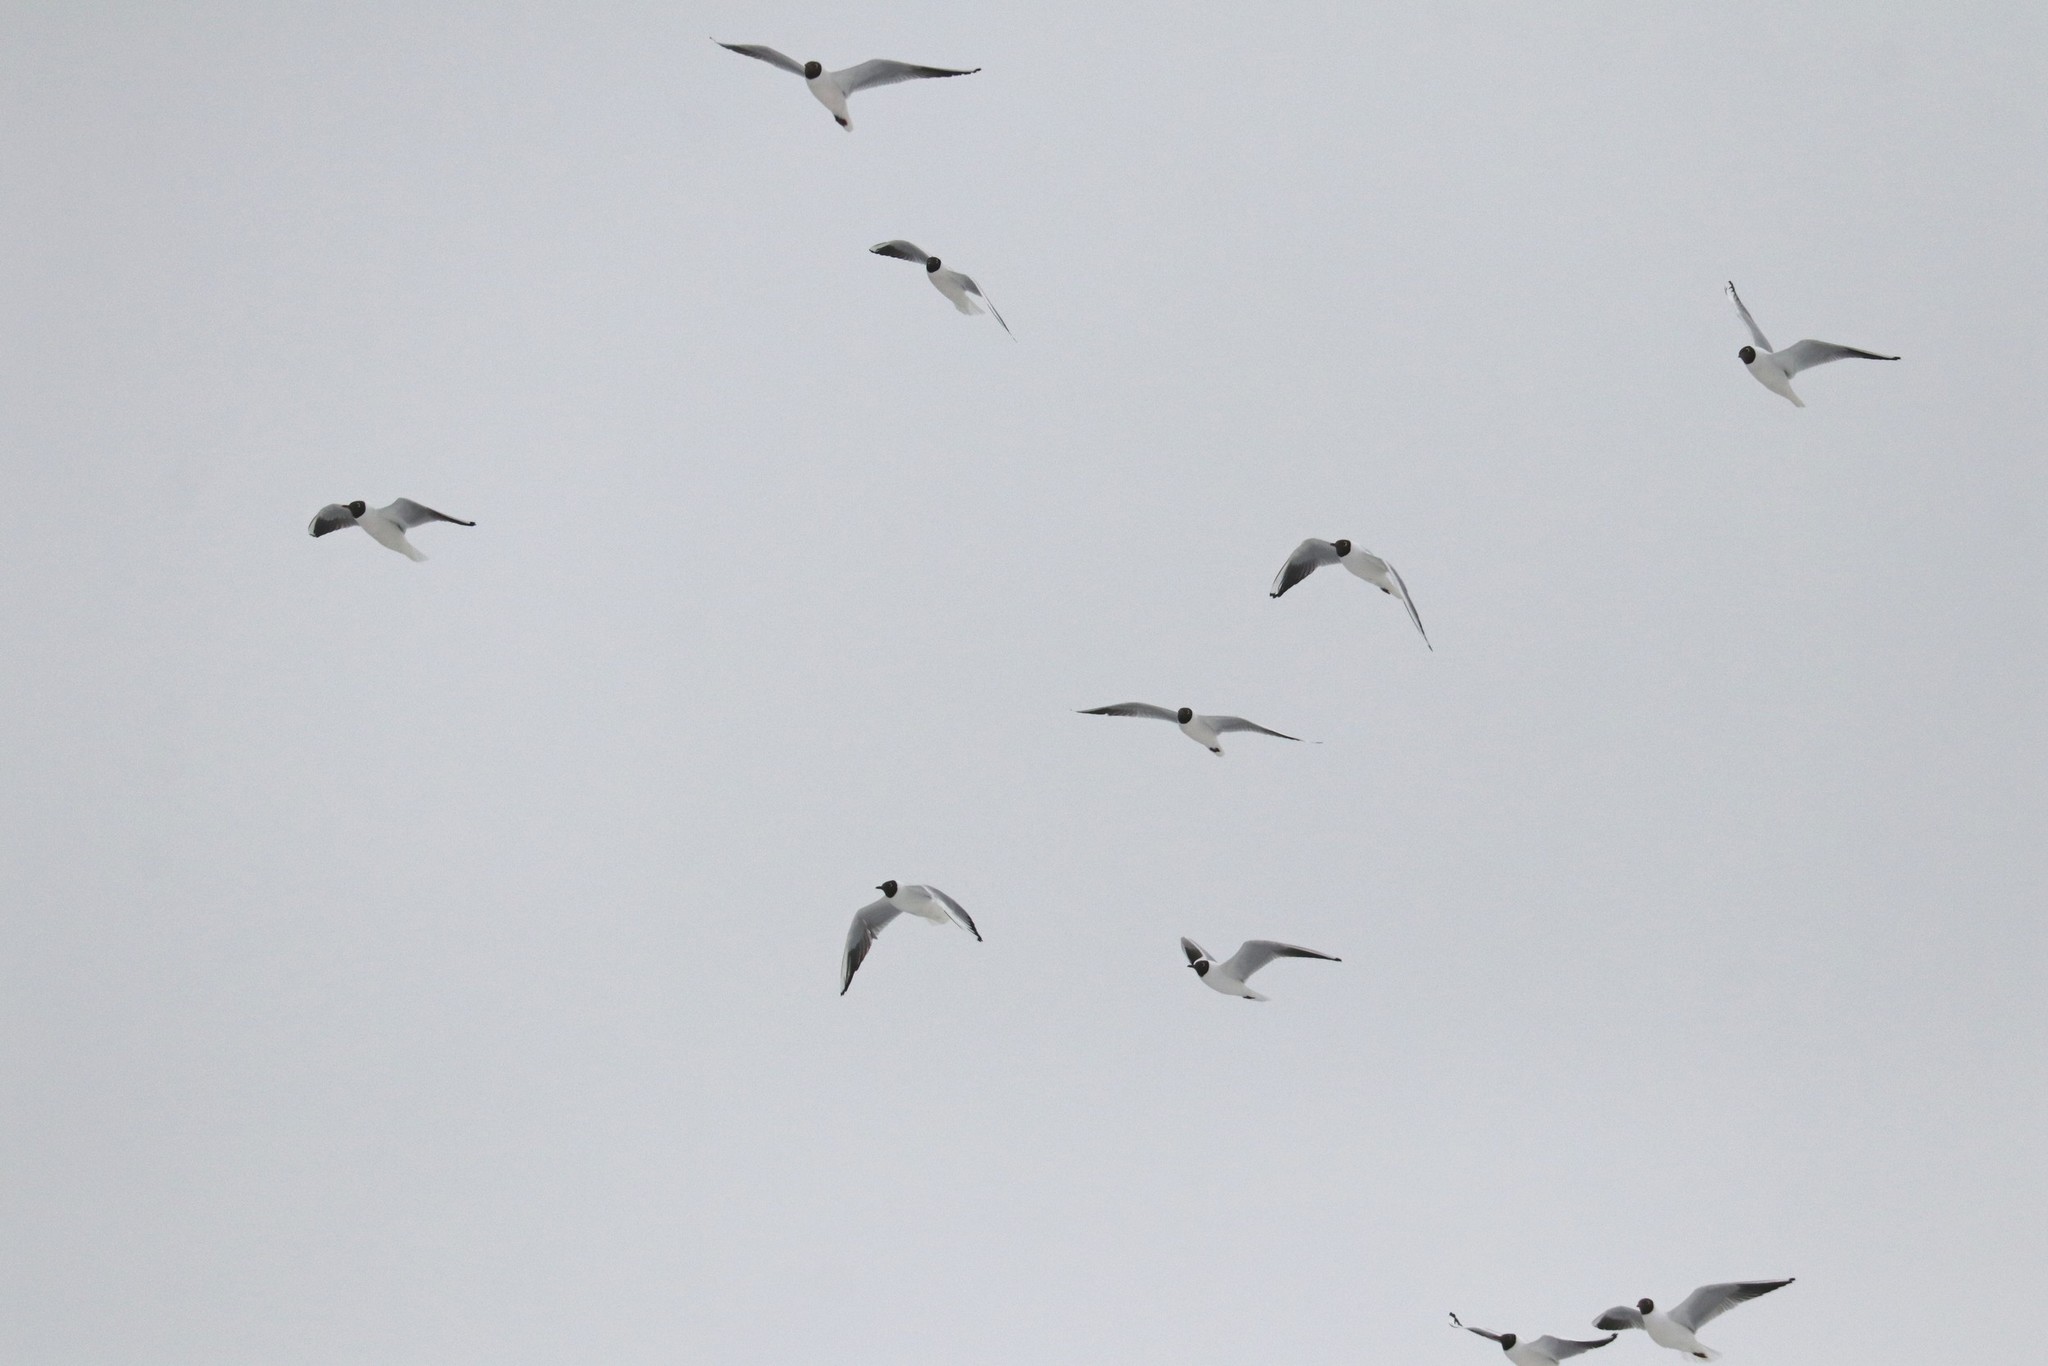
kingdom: Animalia
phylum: Chordata
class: Aves
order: Charadriiformes
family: Laridae
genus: Chroicocephalus
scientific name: Chroicocephalus ridibundus
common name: Black-headed gull
